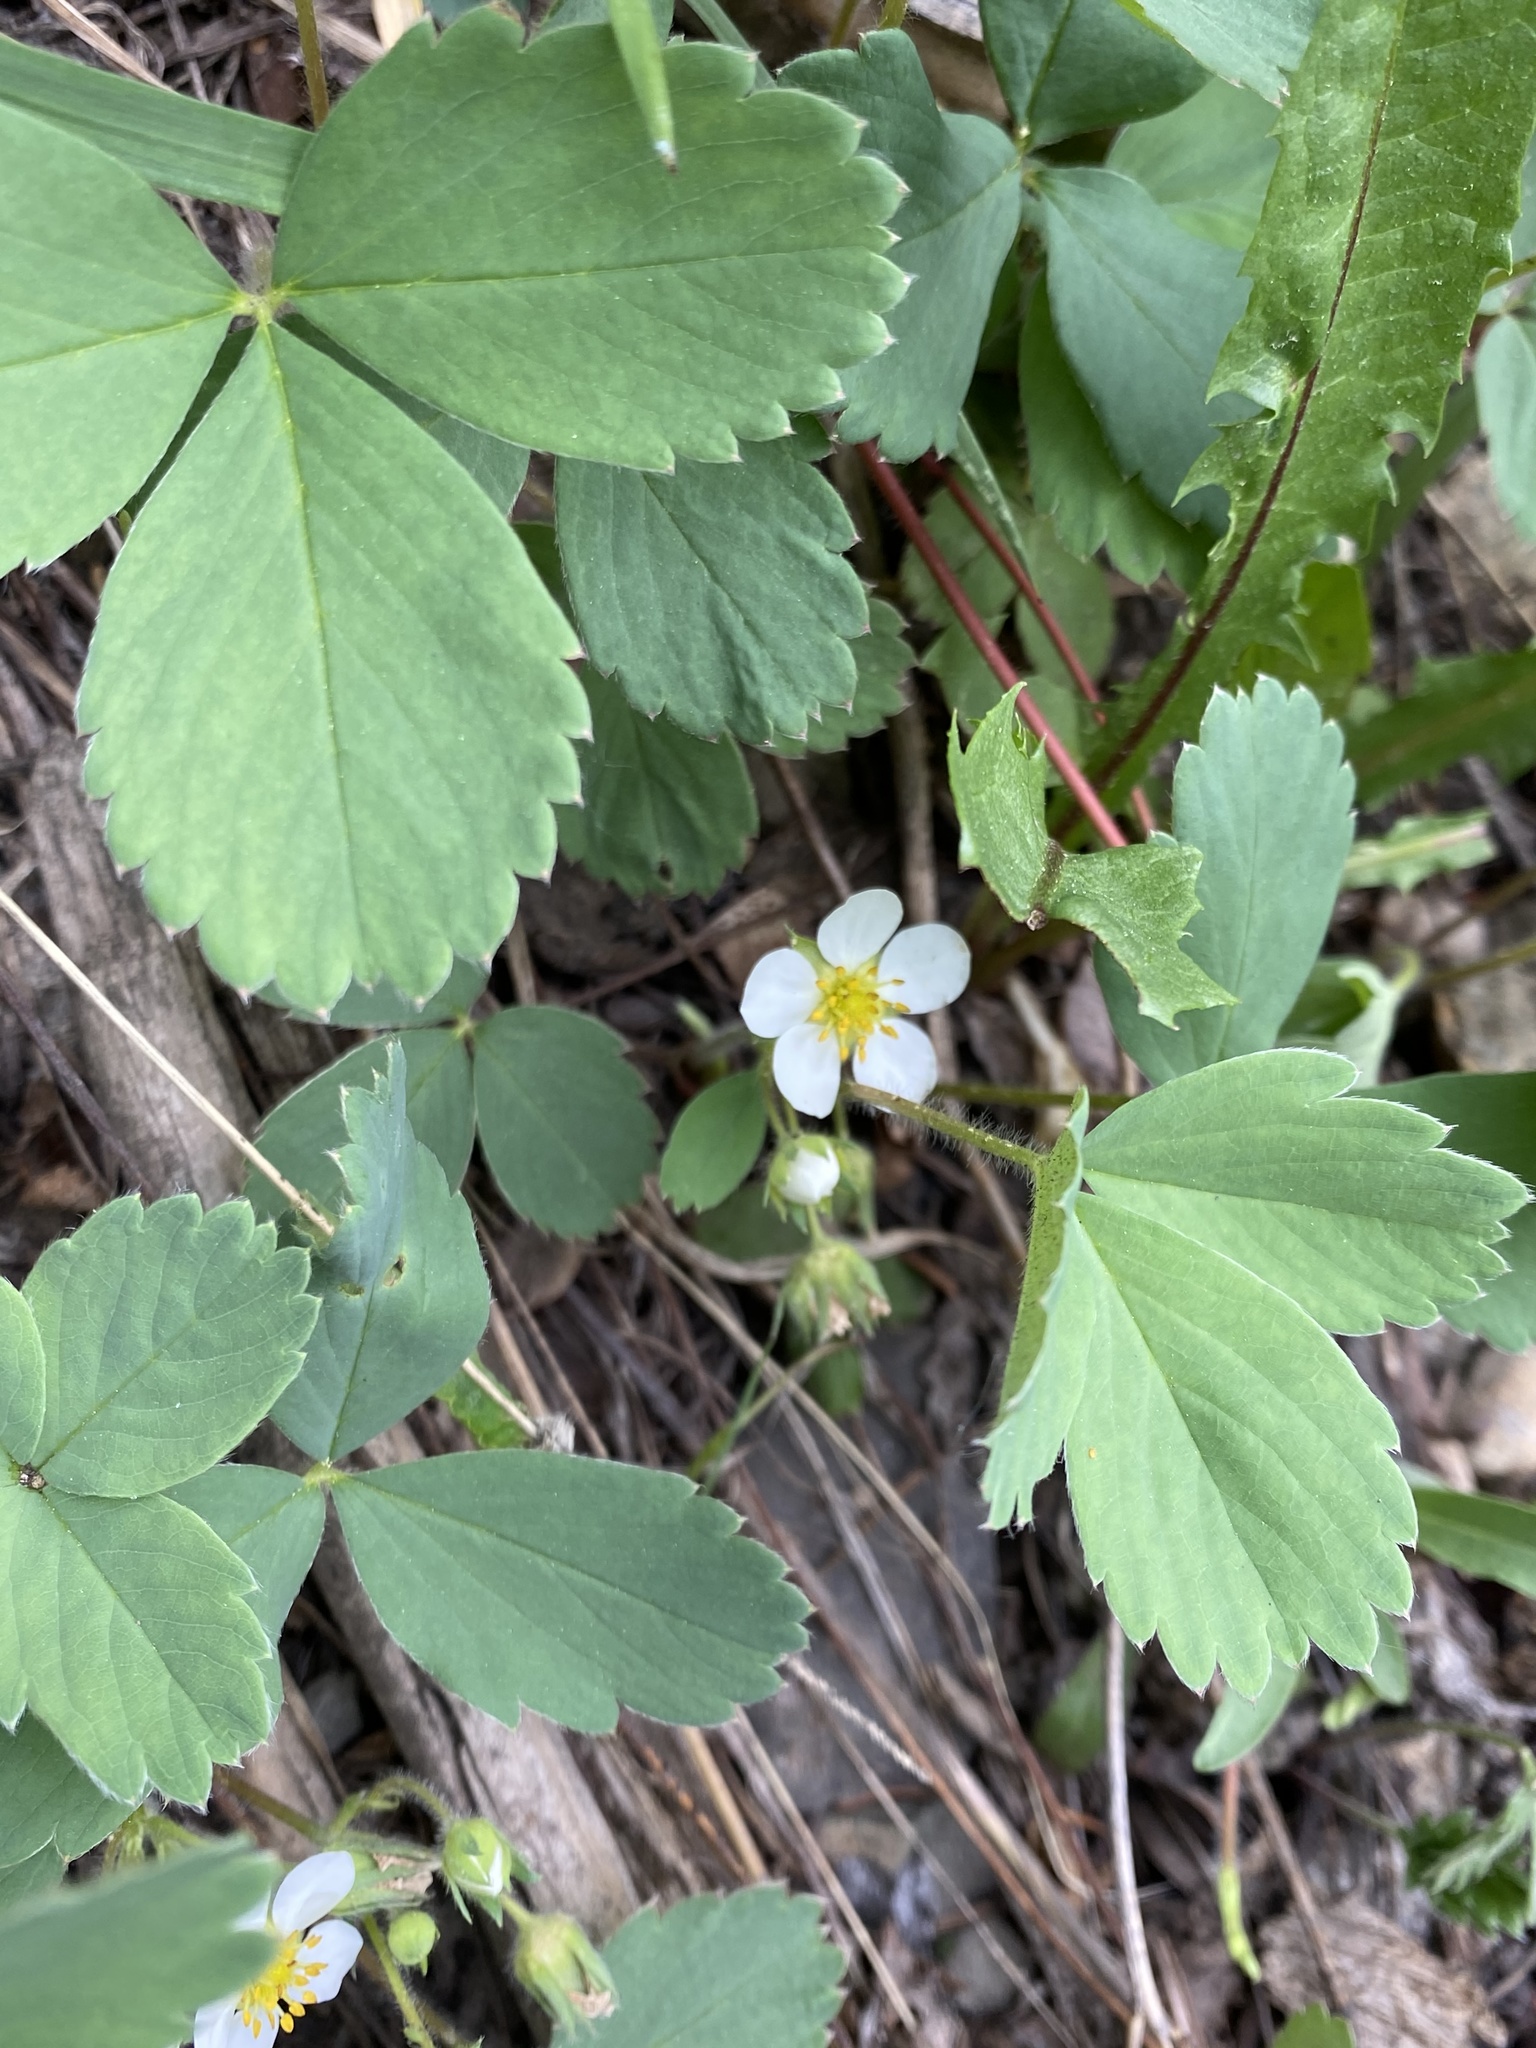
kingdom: Plantae
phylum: Tracheophyta
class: Magnoliopsida
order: Rosales
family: Rosaceae
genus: Fragaria
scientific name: Fragaria virginiana
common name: Thickleaved wild strawberry
